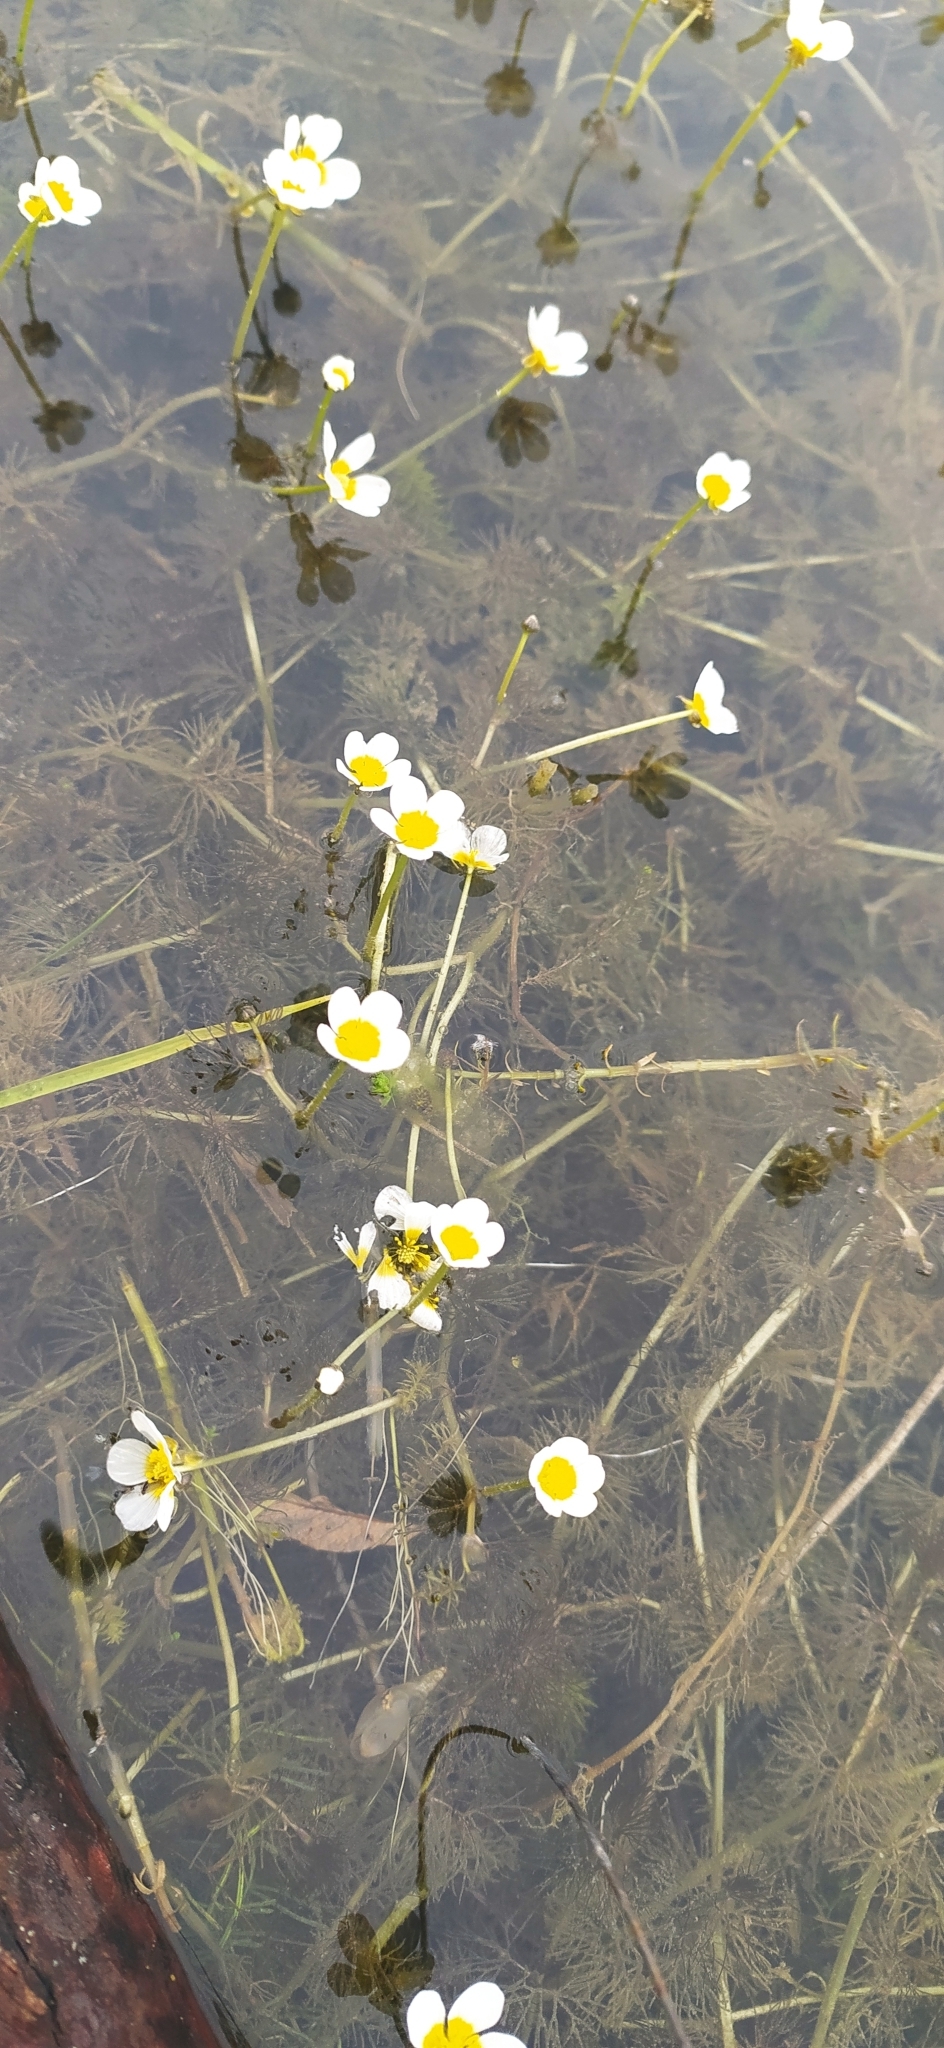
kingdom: Plantae
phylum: Tracheophyta
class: Magnoliopsida
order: Ranunculales
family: Ranunculaceae
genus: Ranunculus
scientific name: Ranunculus circinatus
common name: Fan-leaved water-crowfoot
